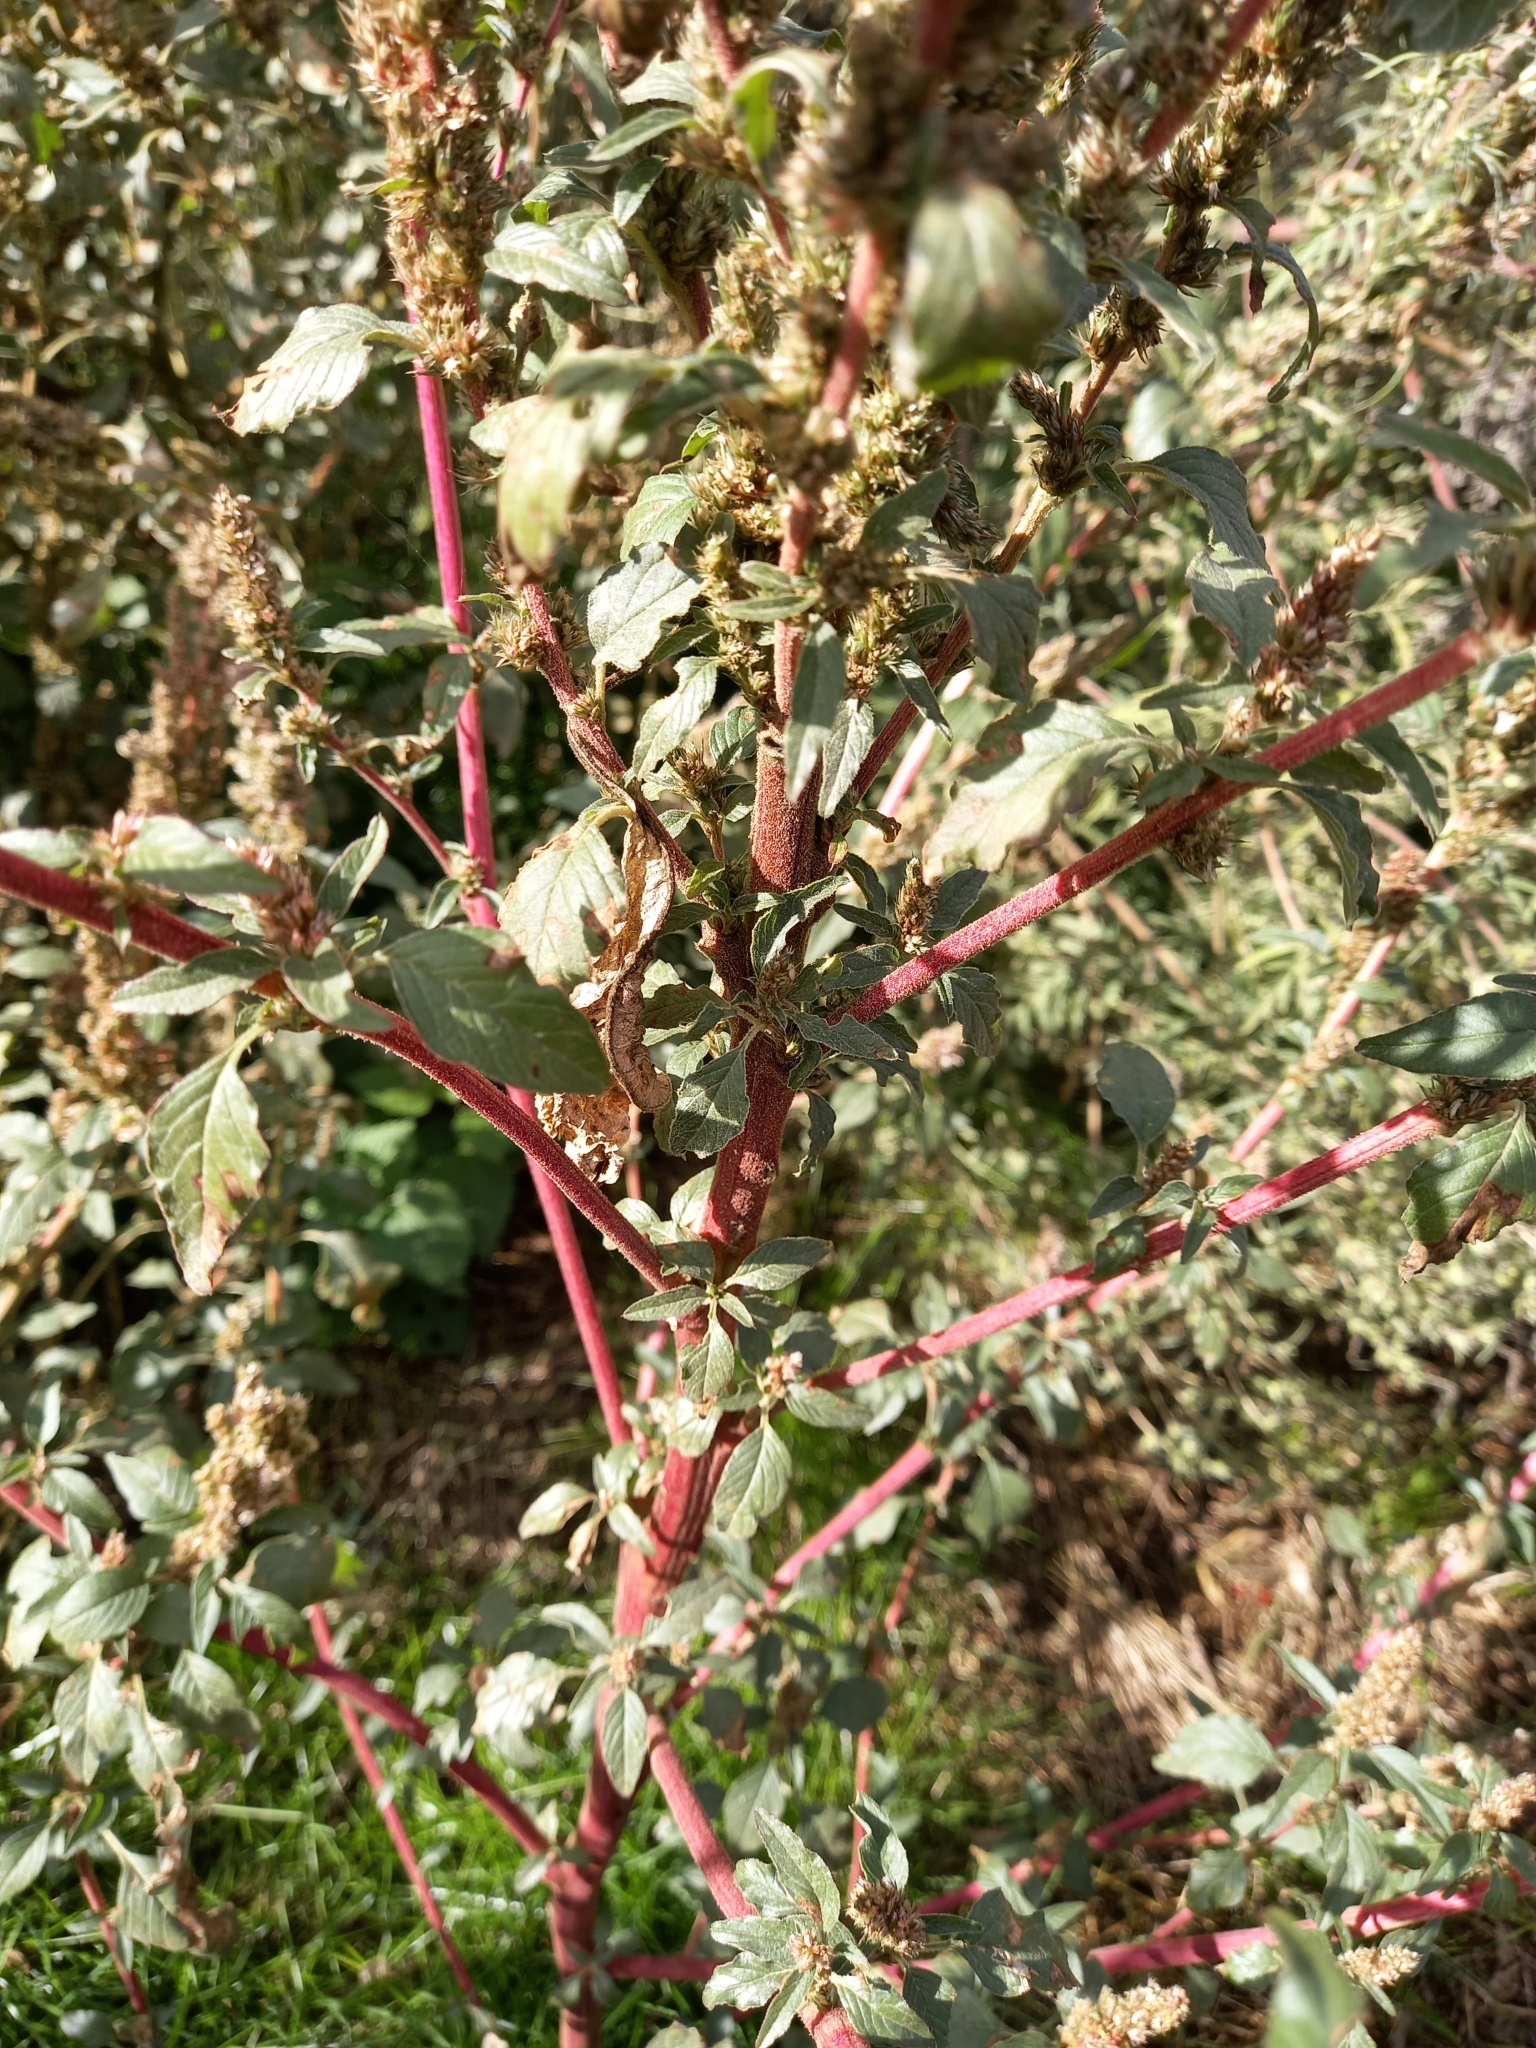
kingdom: Plantae
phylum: Tracheophyta
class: Magnoliopsida
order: Caryophyllales
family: Amaranthaceae
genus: Amaranthus
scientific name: Amaranthus retroflexus
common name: Redroot amaranth
